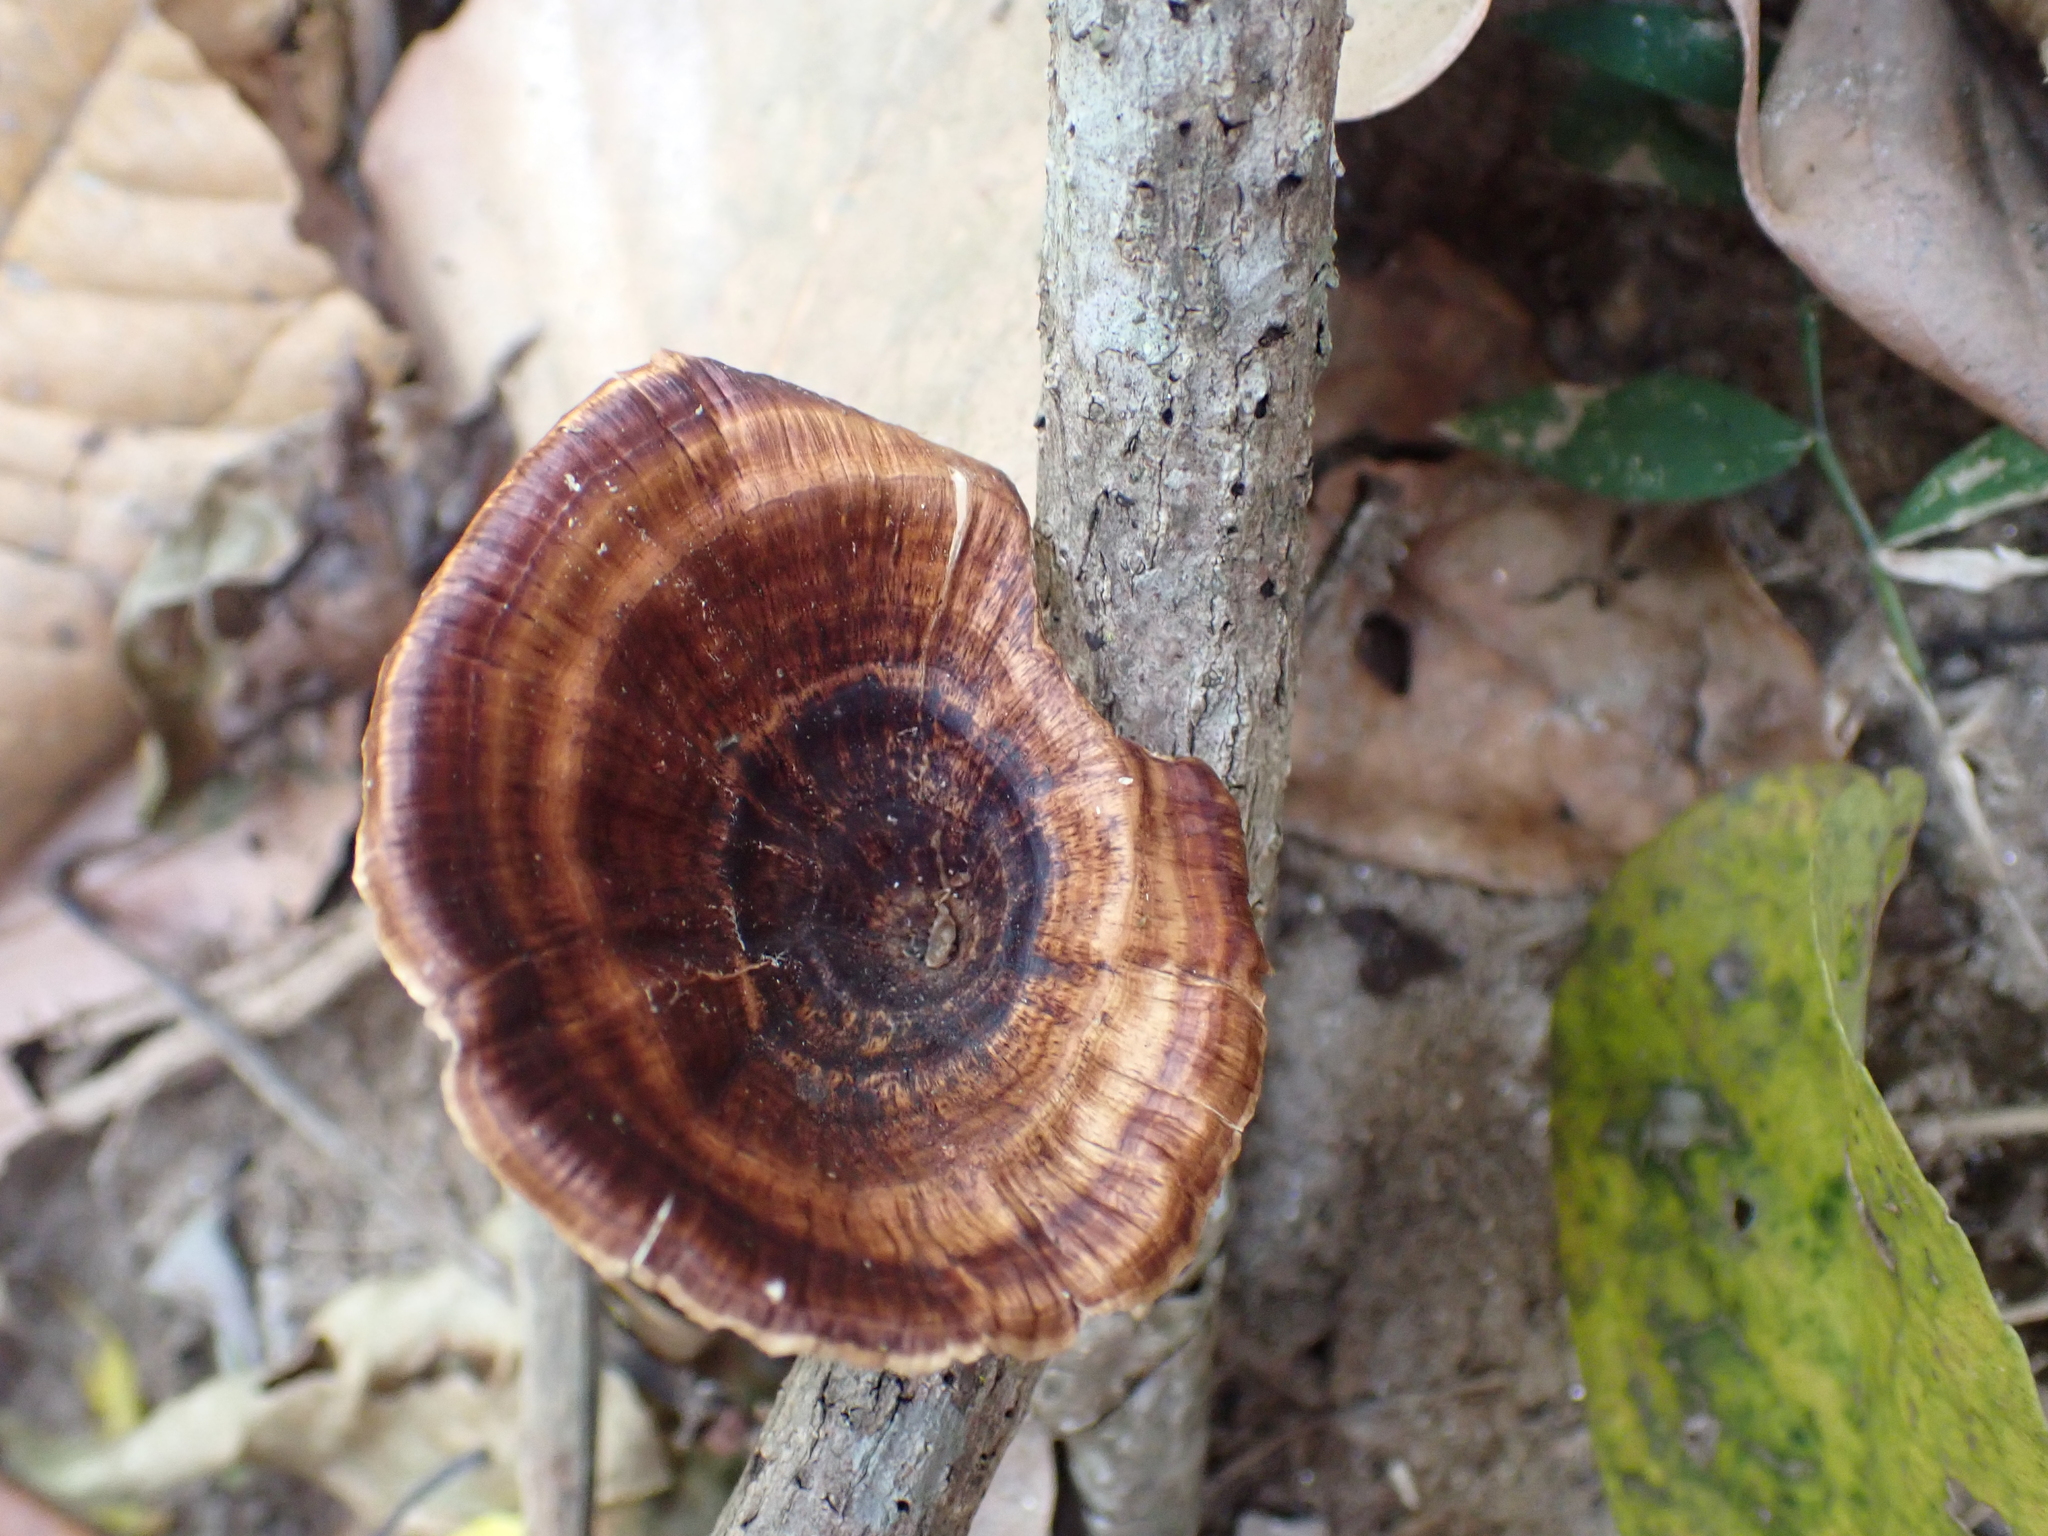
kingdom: Fungi
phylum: Basidiomycota
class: Agaricomycetes
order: Polyporales
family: Polyporaceae
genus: Microporus
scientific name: Microporus xanthopus
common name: Yellow-stemmed micropore
